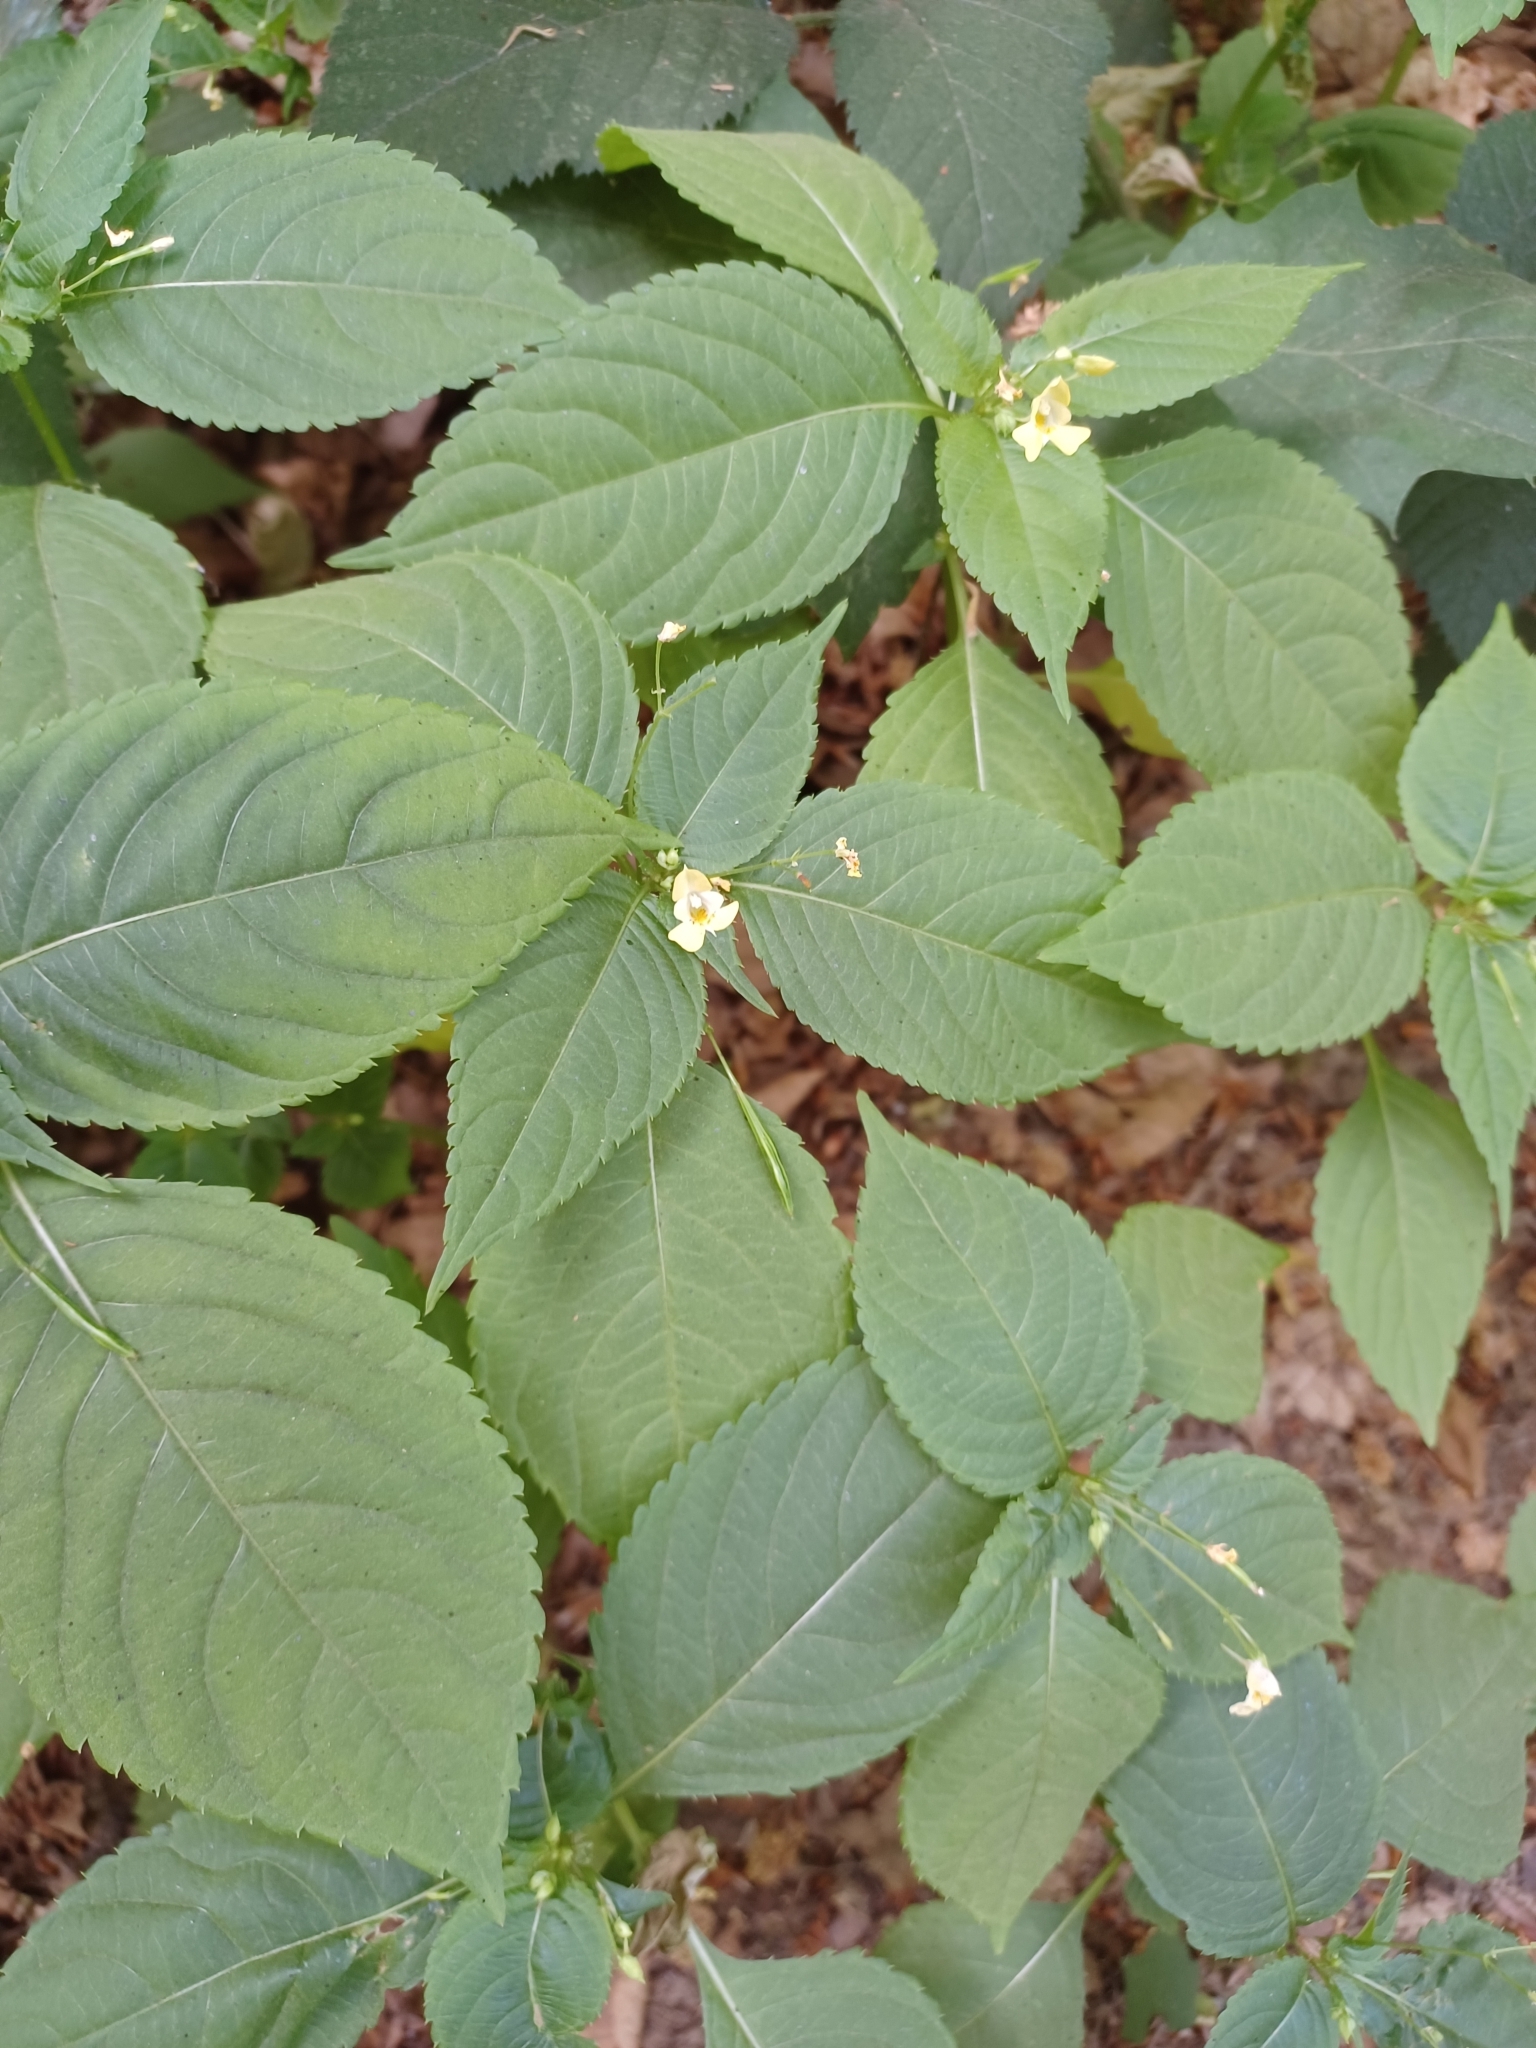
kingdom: Plantae
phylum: Tracheophyta
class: Magnoliopsida
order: Ericales
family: Balsaminaceae
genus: Impatiens
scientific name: Impatiens parviflora
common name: Small balsam
